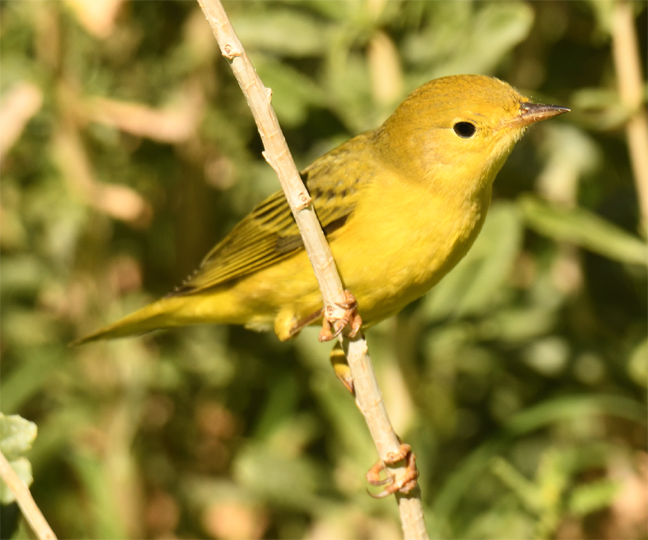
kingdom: Animalia
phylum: Chordata
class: Aves
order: Passeriformes
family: Parulidae
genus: Setophaga
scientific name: Setophaga petechia
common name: Yellow warbler
